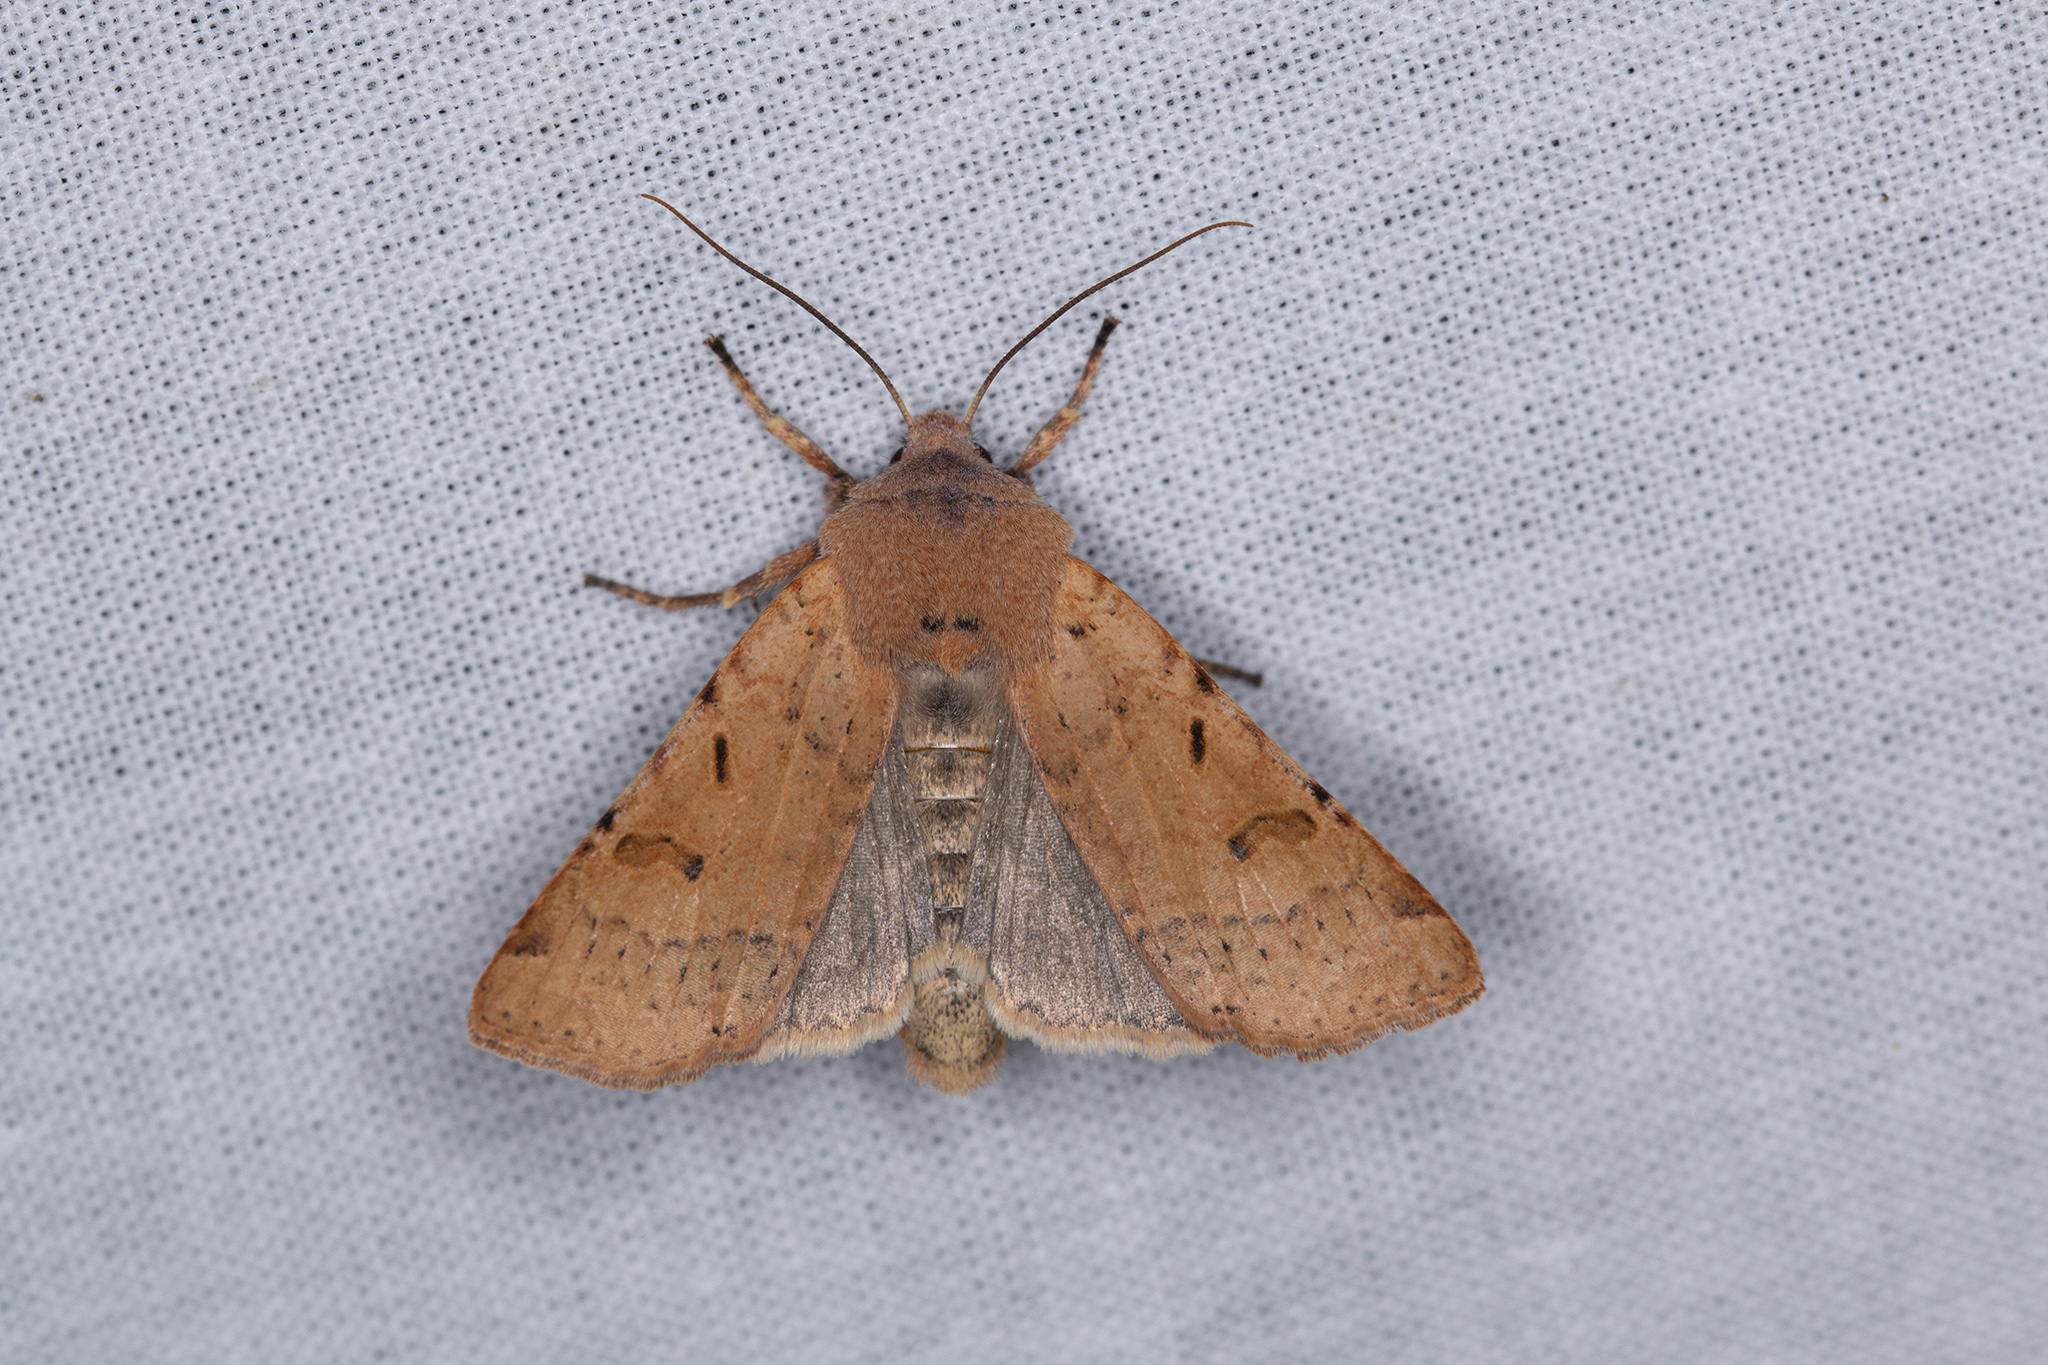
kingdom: Animalia
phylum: Arthropoda
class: Insecta
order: Lepidoptera
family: Noctuidae
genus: Agrochola
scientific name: Agrochola lychnidis
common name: Beaded chestnut
